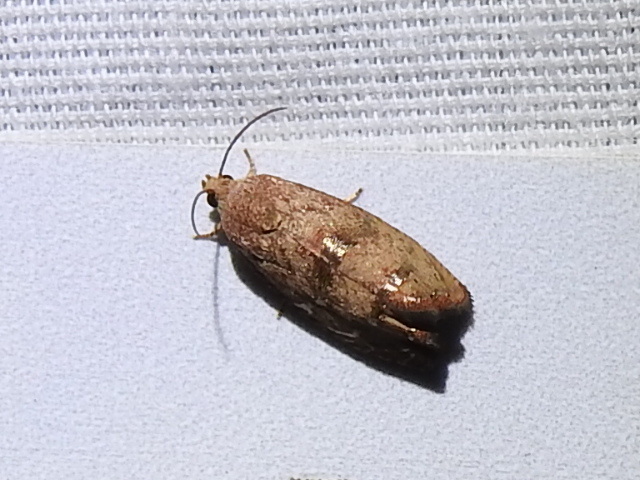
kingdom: Animalia
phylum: Arthropoda
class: Insecta
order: Lepidoptera
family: Tortricidae
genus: Cydia
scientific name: Cydia latiferreana
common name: Filbertworm moth
